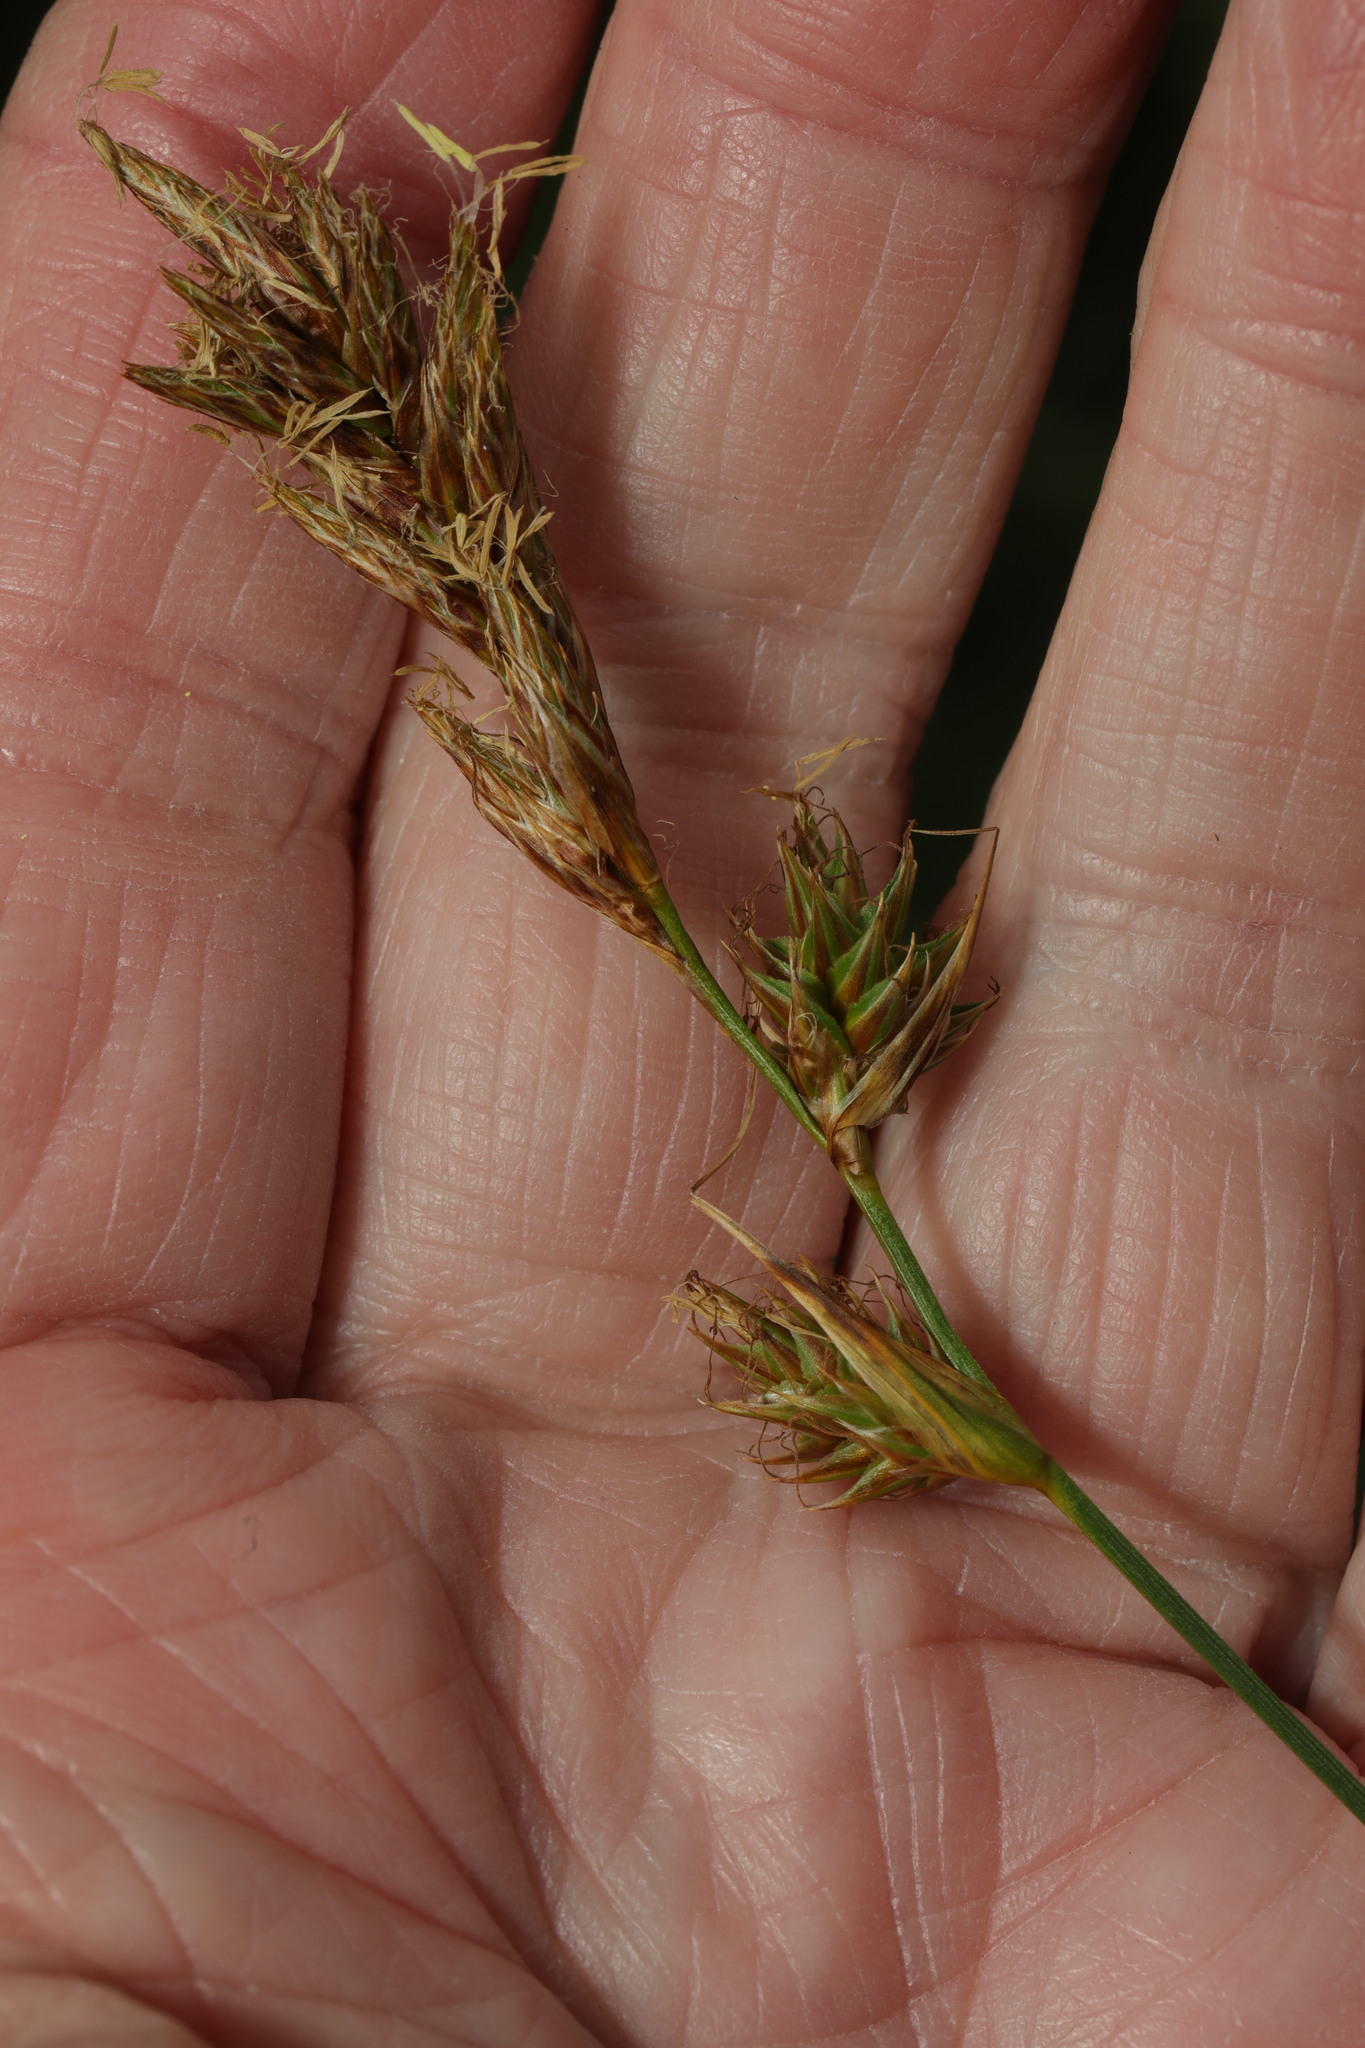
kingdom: Plantae
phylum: Tracheophyta
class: Liliopsida
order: Poales
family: Cyperaceae
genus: Carex
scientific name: Carex arenaria
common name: Sand sedge
